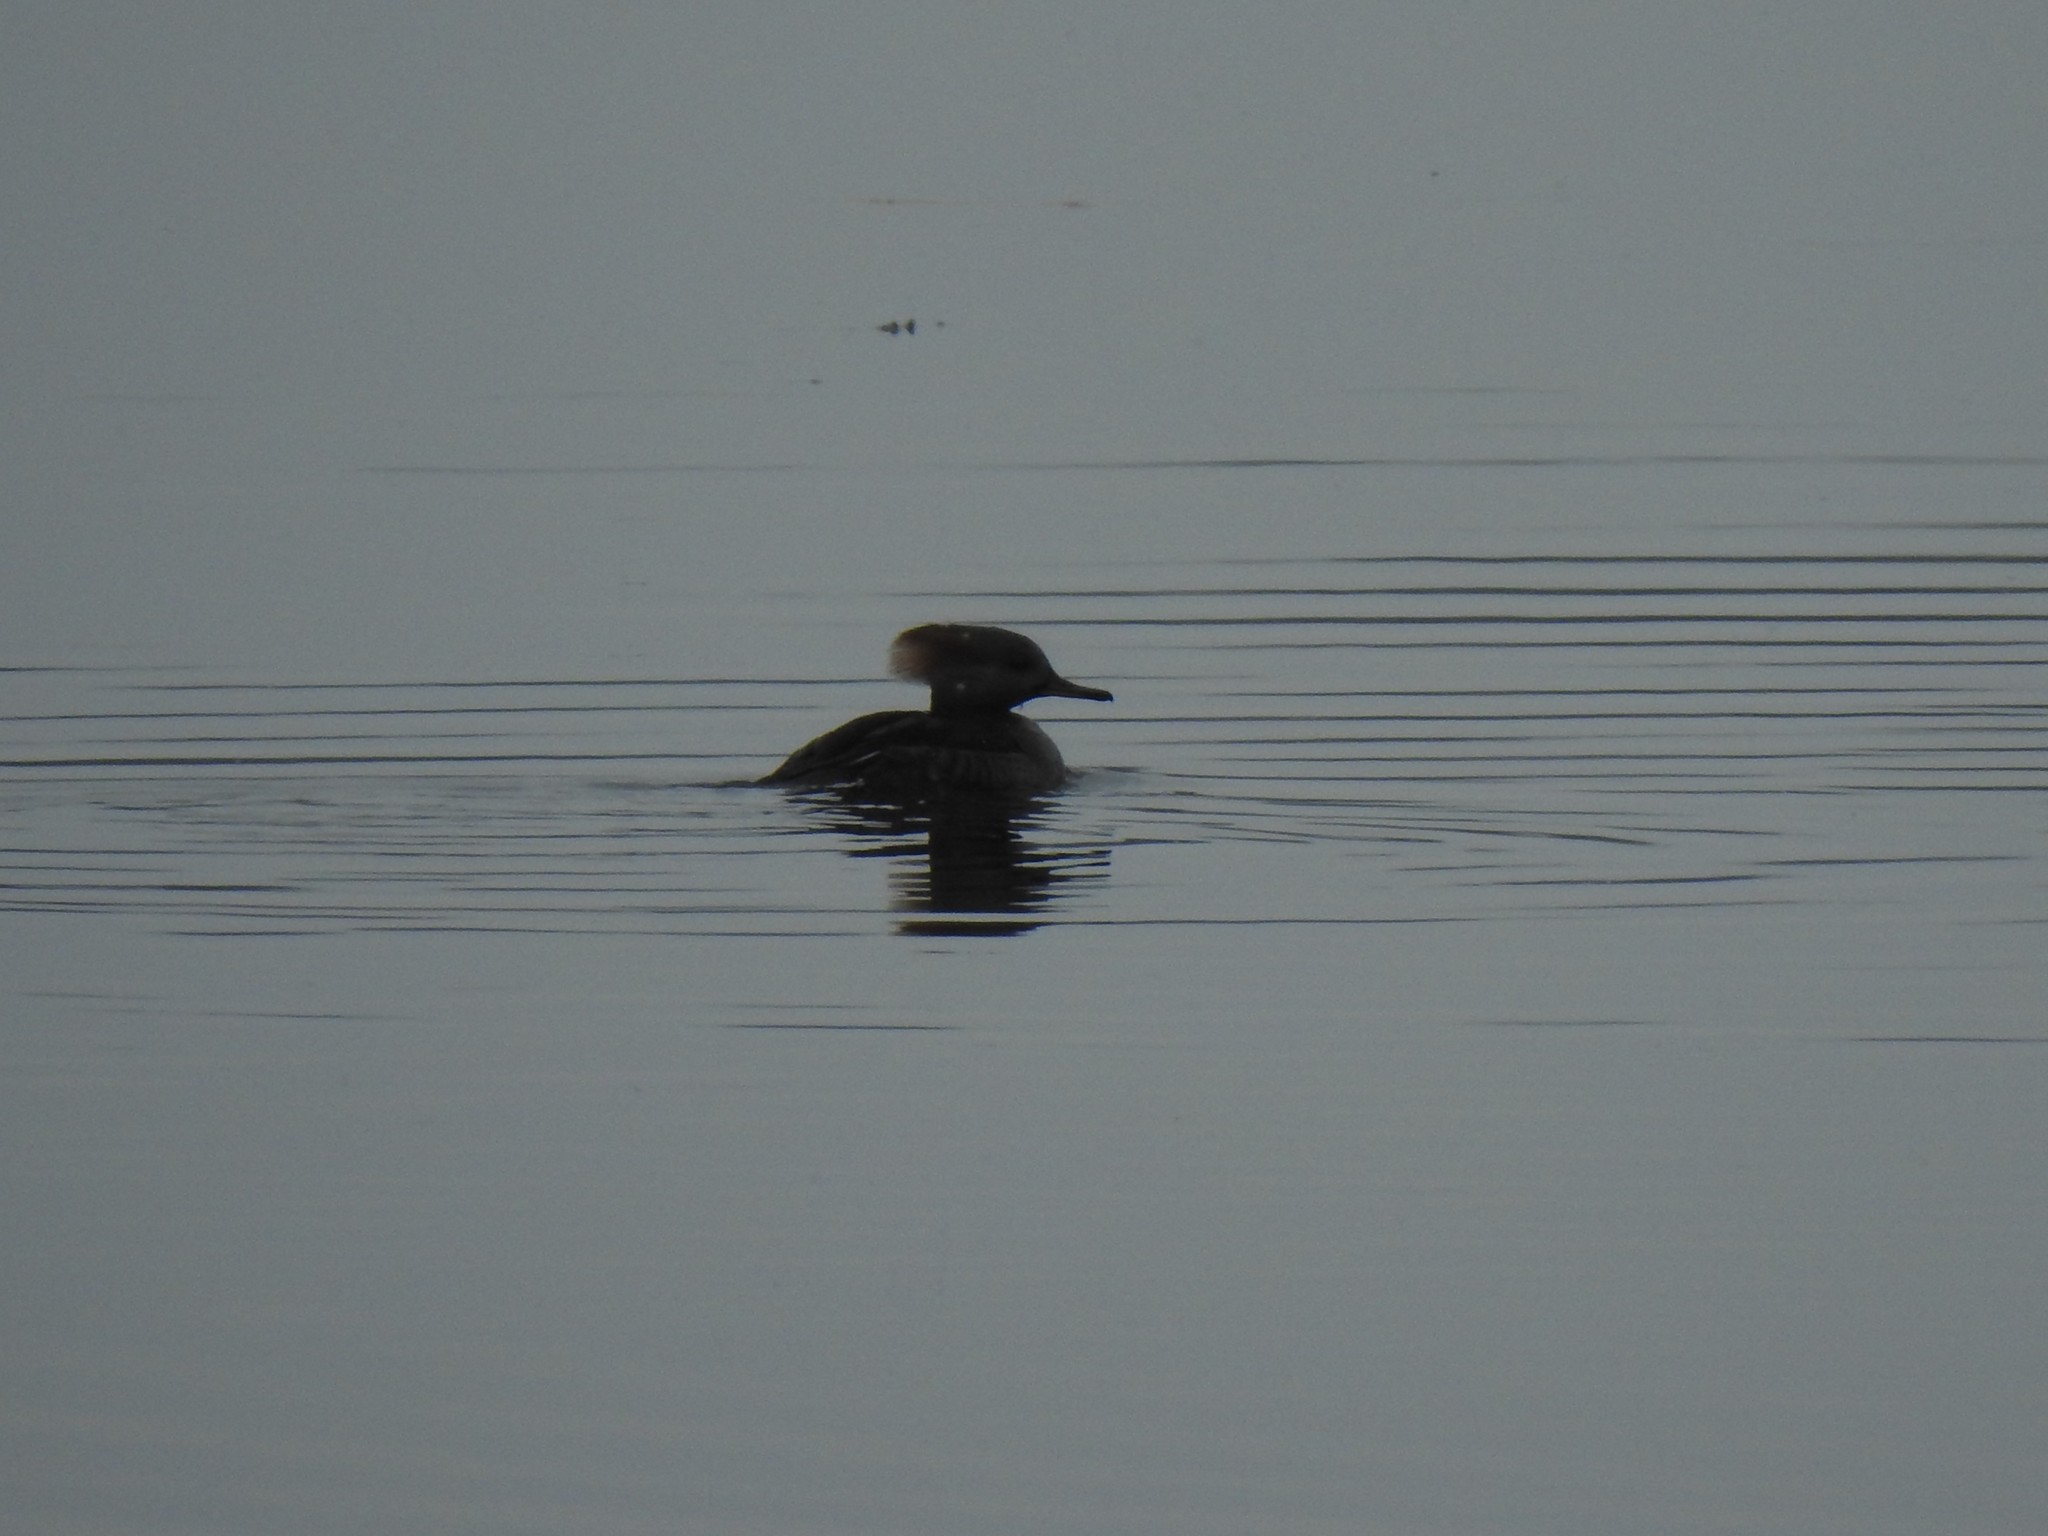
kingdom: Animalia
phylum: Chordata
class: Aves
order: Anseriformes
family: Anatidae
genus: Lophodytes
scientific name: Lophodytes cucullatus
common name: Hooded merganser
